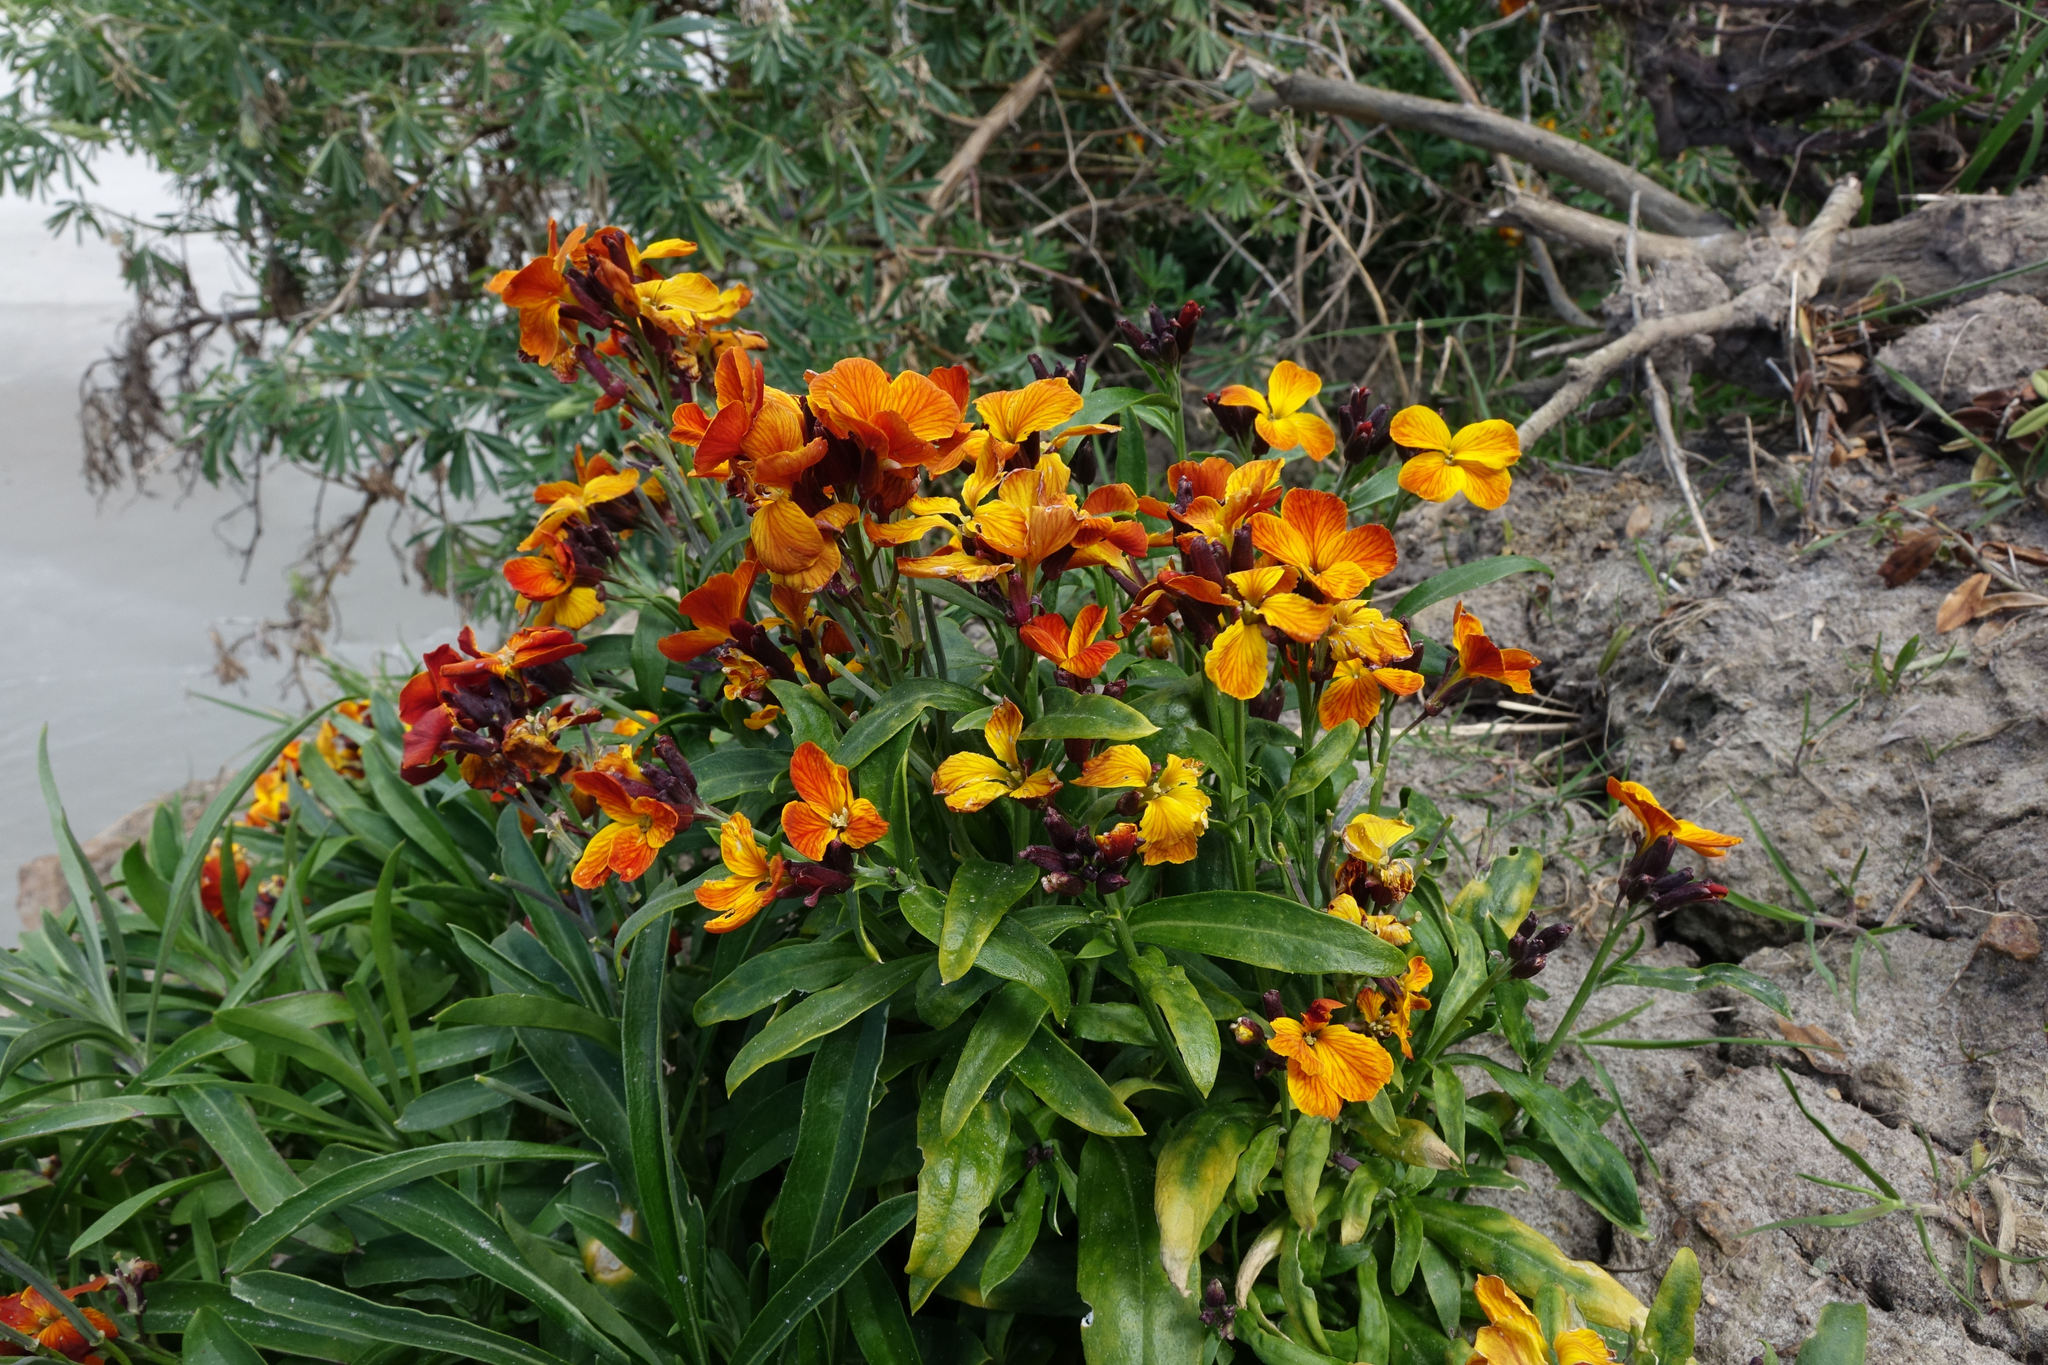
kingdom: Plantae
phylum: Tracheophyta
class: Magnoliopsida
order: Brassicales
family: Brassicaceae
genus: Erysimum
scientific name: Erysimum cheiri
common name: Wallflower
